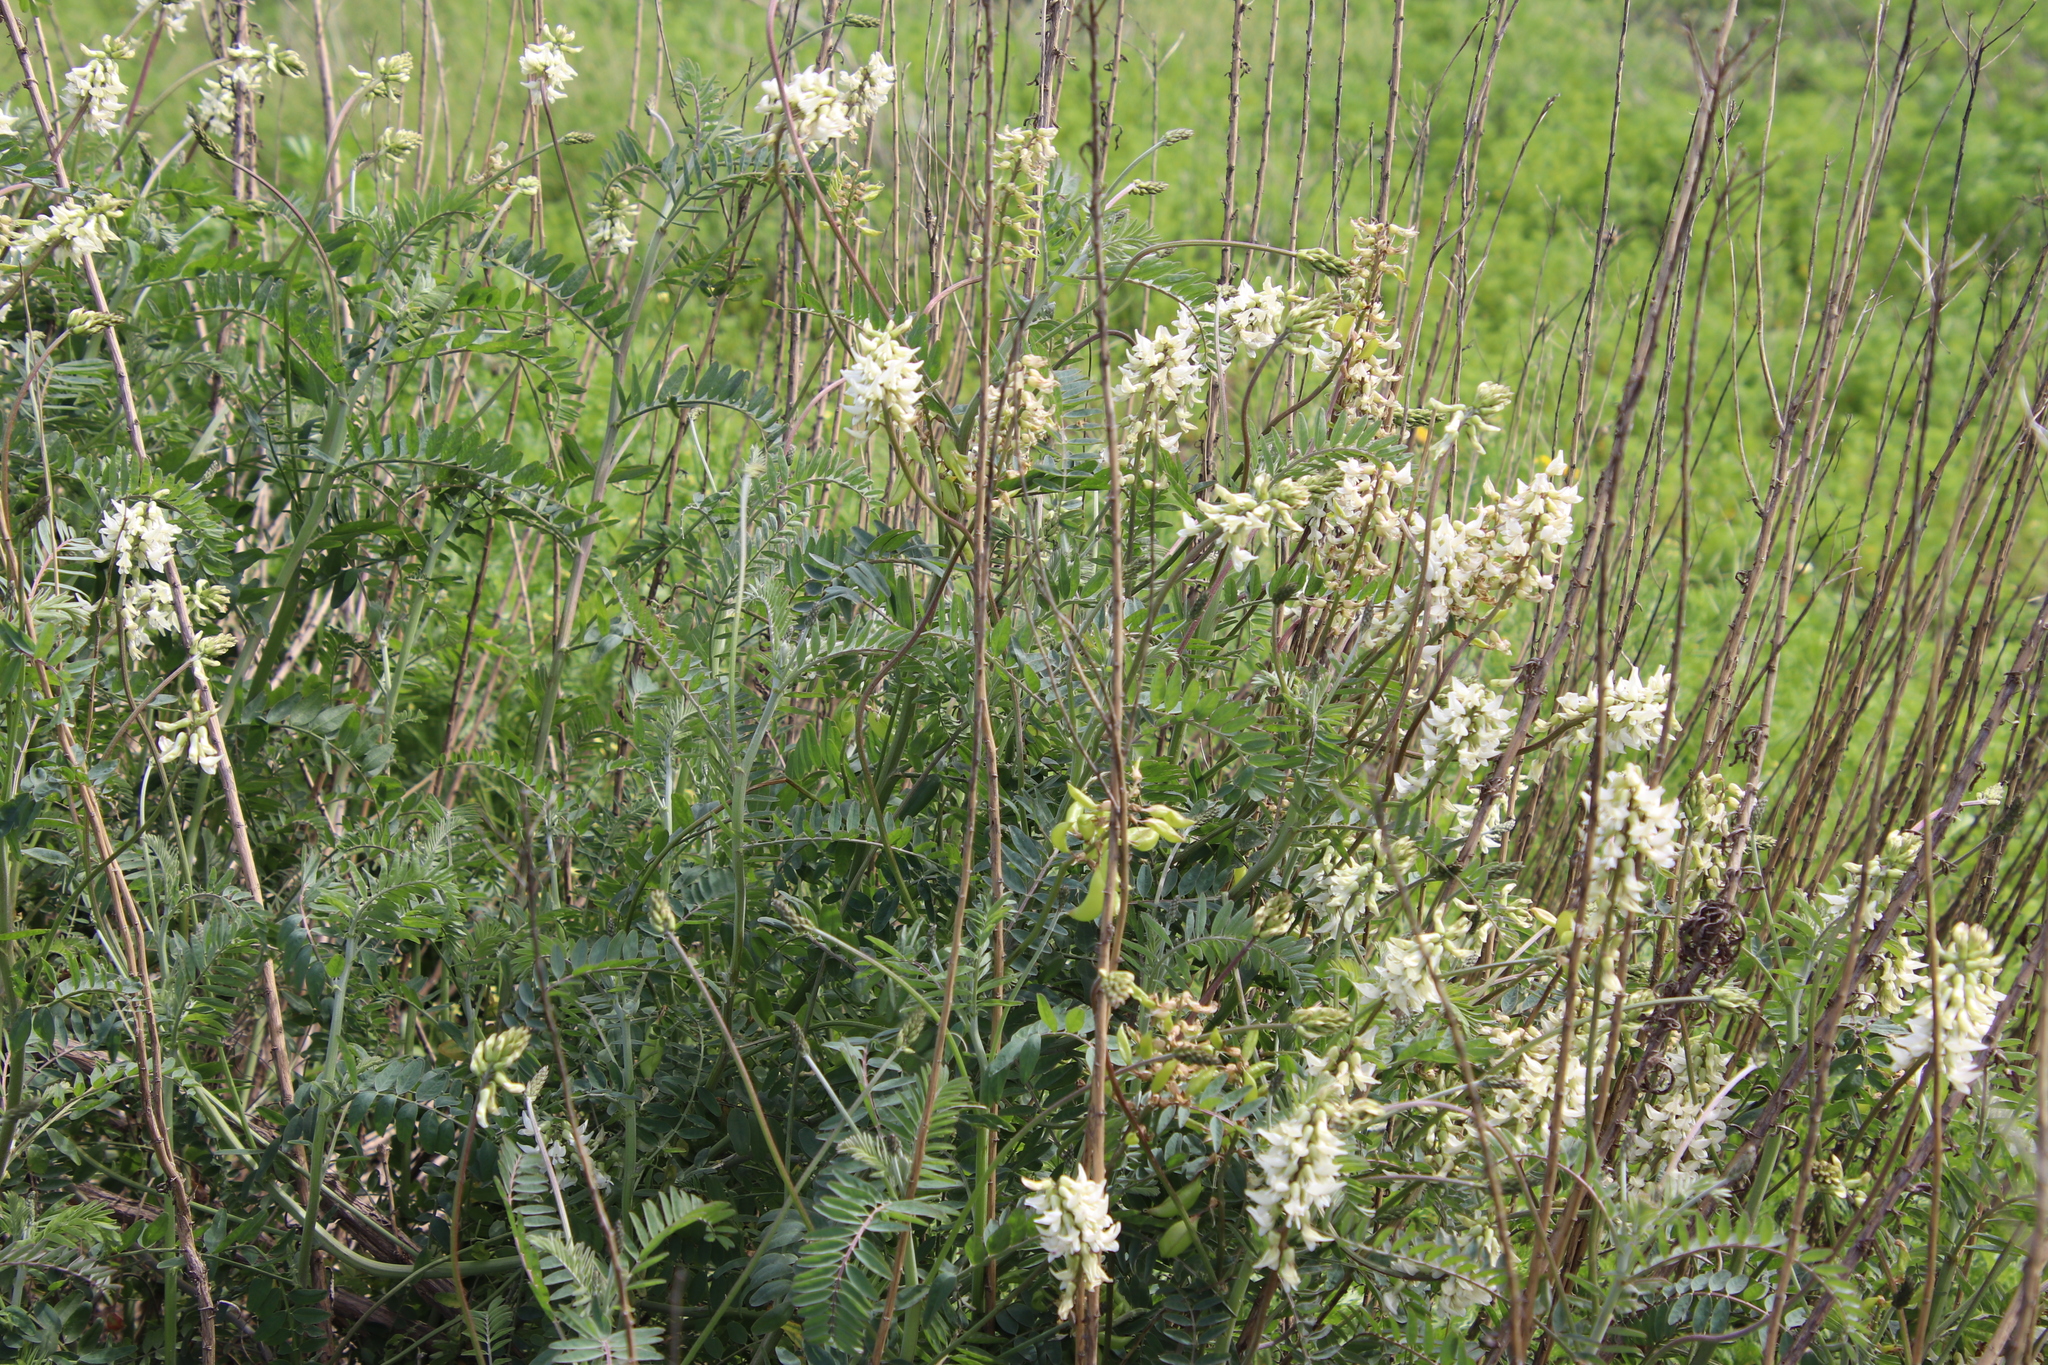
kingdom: Plantae
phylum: Tracheophyta
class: Magnoliopsida
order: Fabales
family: Fabaceae
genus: Astragalus
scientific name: Astragalus trichopodus
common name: Santa barbara milk-vetch
